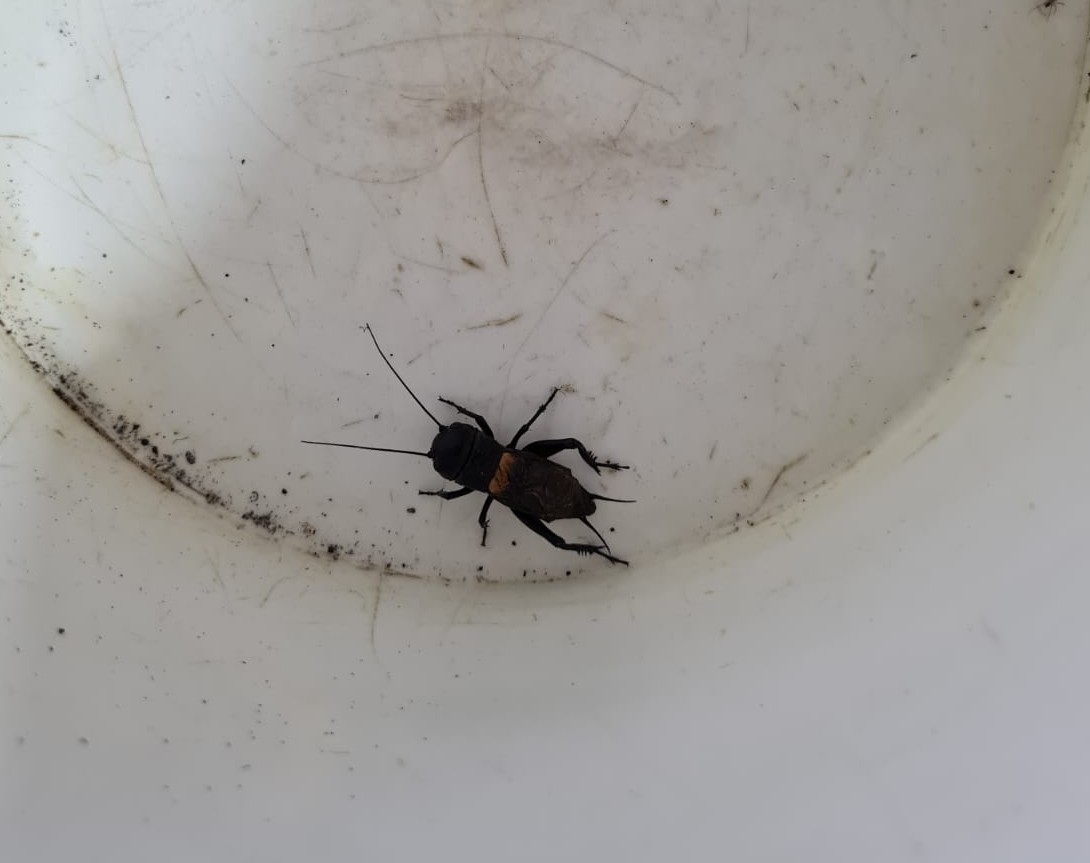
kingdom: Animalia
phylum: Arthropoda
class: Insecta
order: Orthoptera
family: Gryllidae
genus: Gryllus
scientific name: Gryllus campestris
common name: Field cricket
